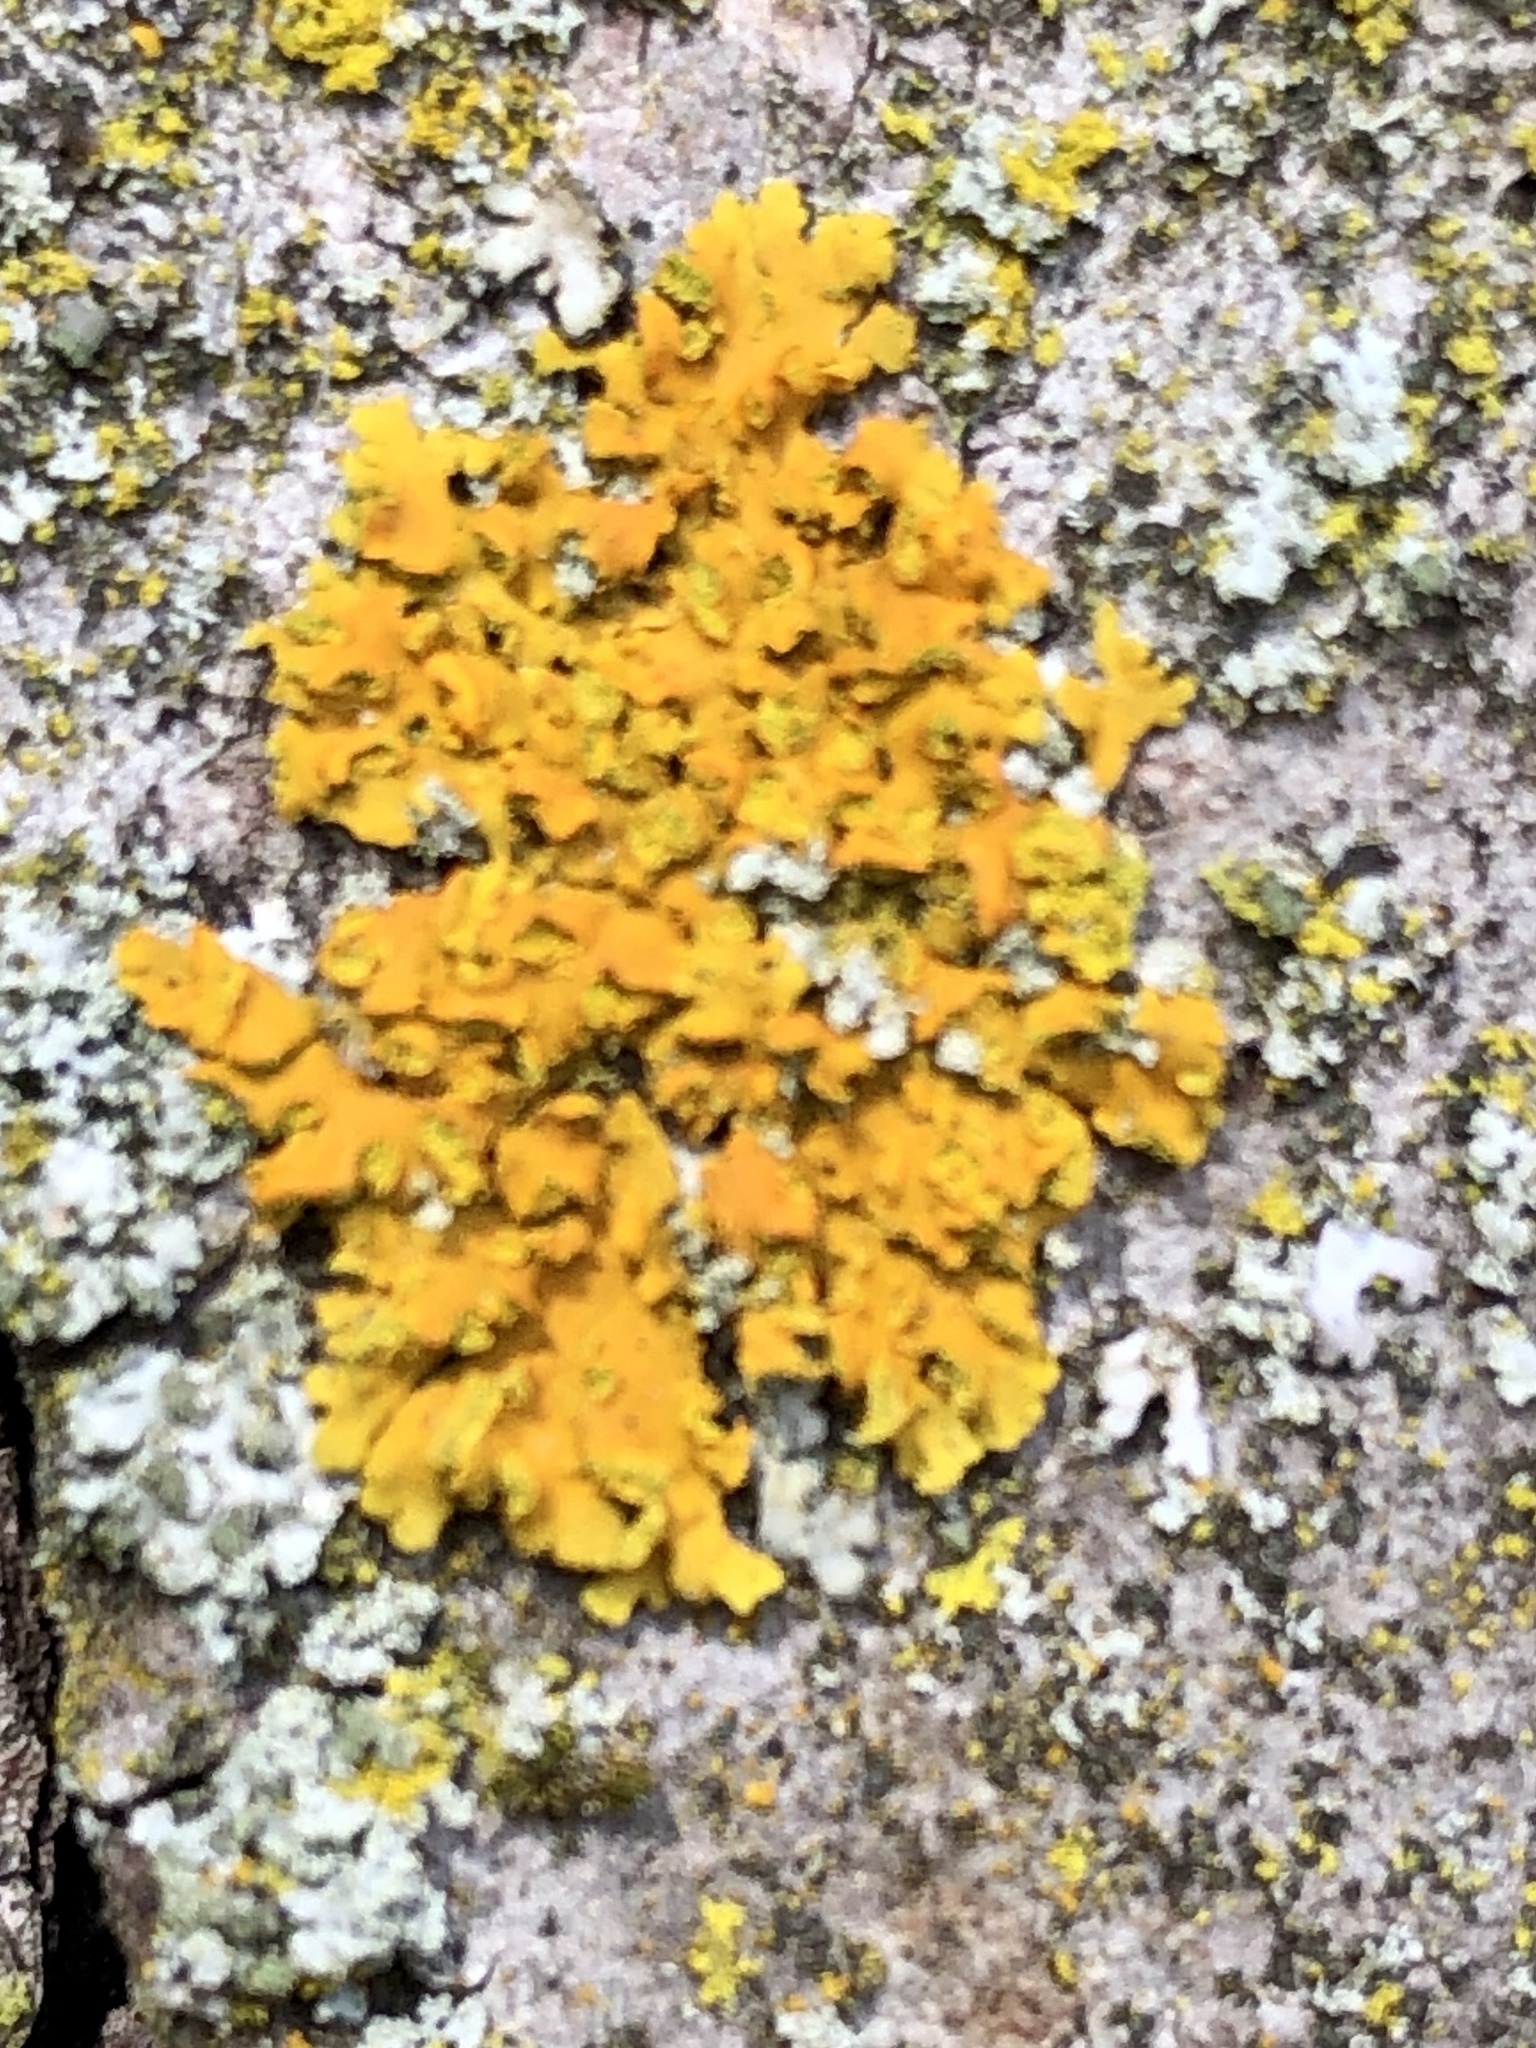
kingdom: Fungi
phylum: Ascomycota
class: Lecanoromycetes
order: Teloschistales
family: Teloschistaceae
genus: Oxneria
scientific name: Oxneria fallax
